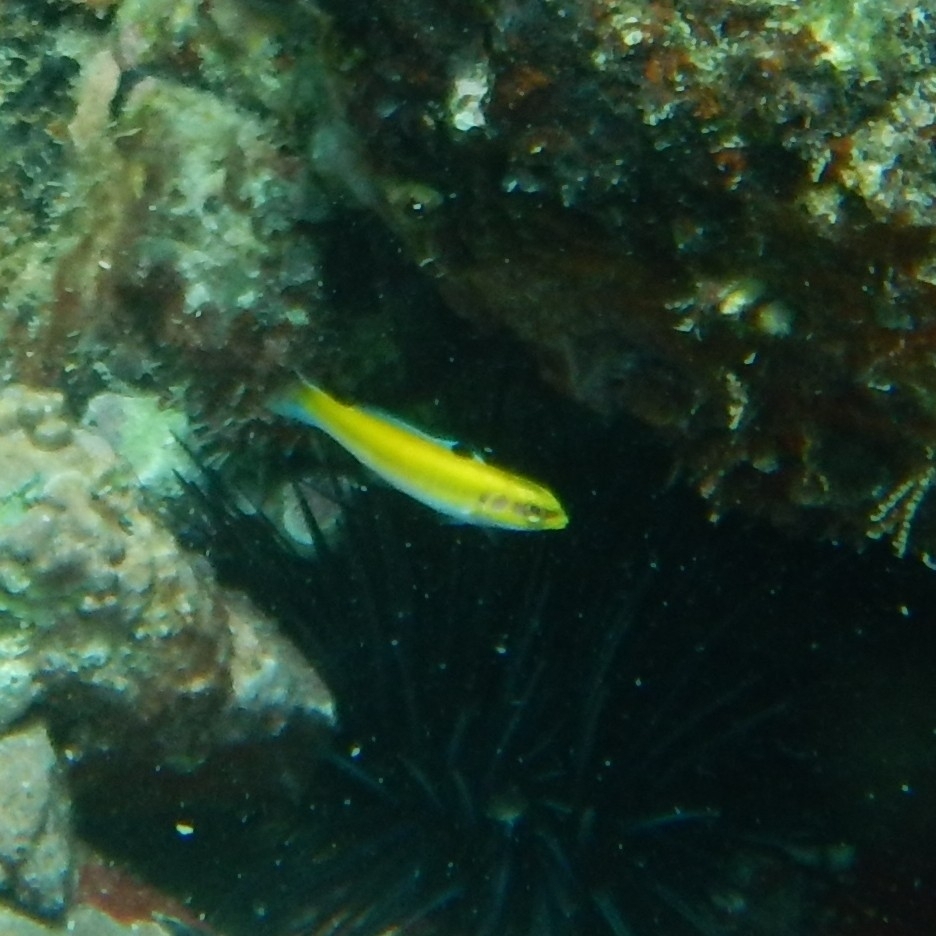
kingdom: Animalia
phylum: Chordata
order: Perciformes
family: Labridae
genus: Thalassoma
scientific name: Thalassoma bifasciatum
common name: Bluehead wrasse
